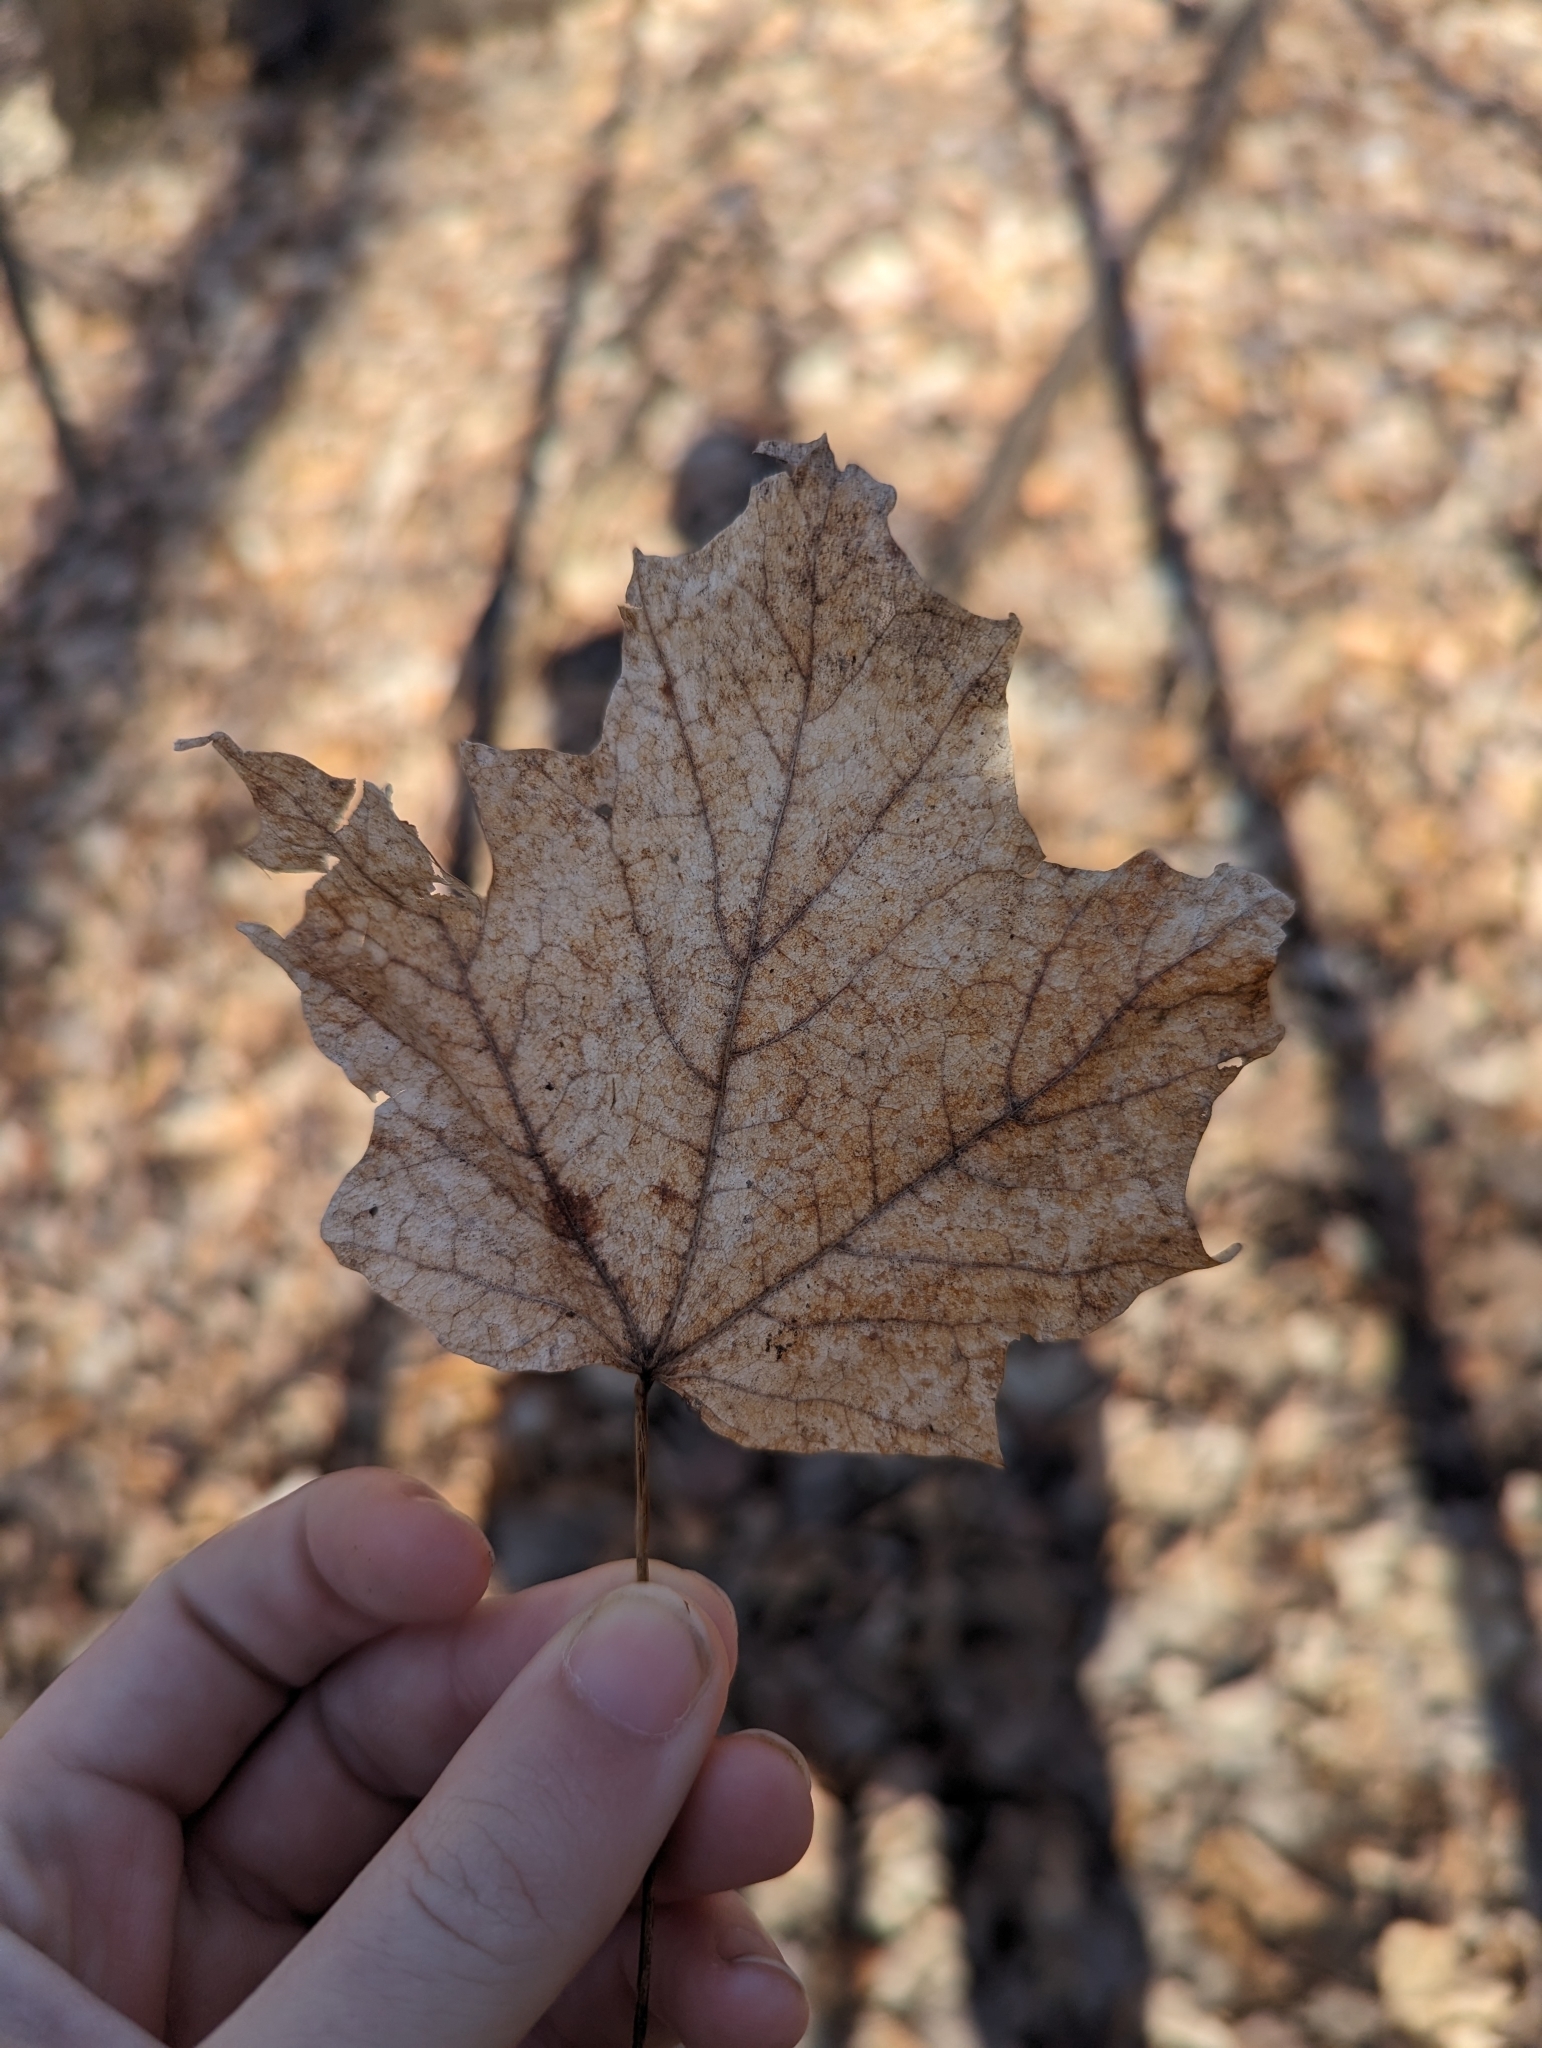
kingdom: Plantae
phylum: Tracheophyta
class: Magnoliopsida
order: Sapindales
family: Sapindaceae
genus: Acer
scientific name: Acer saccharum
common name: Sugar maple
